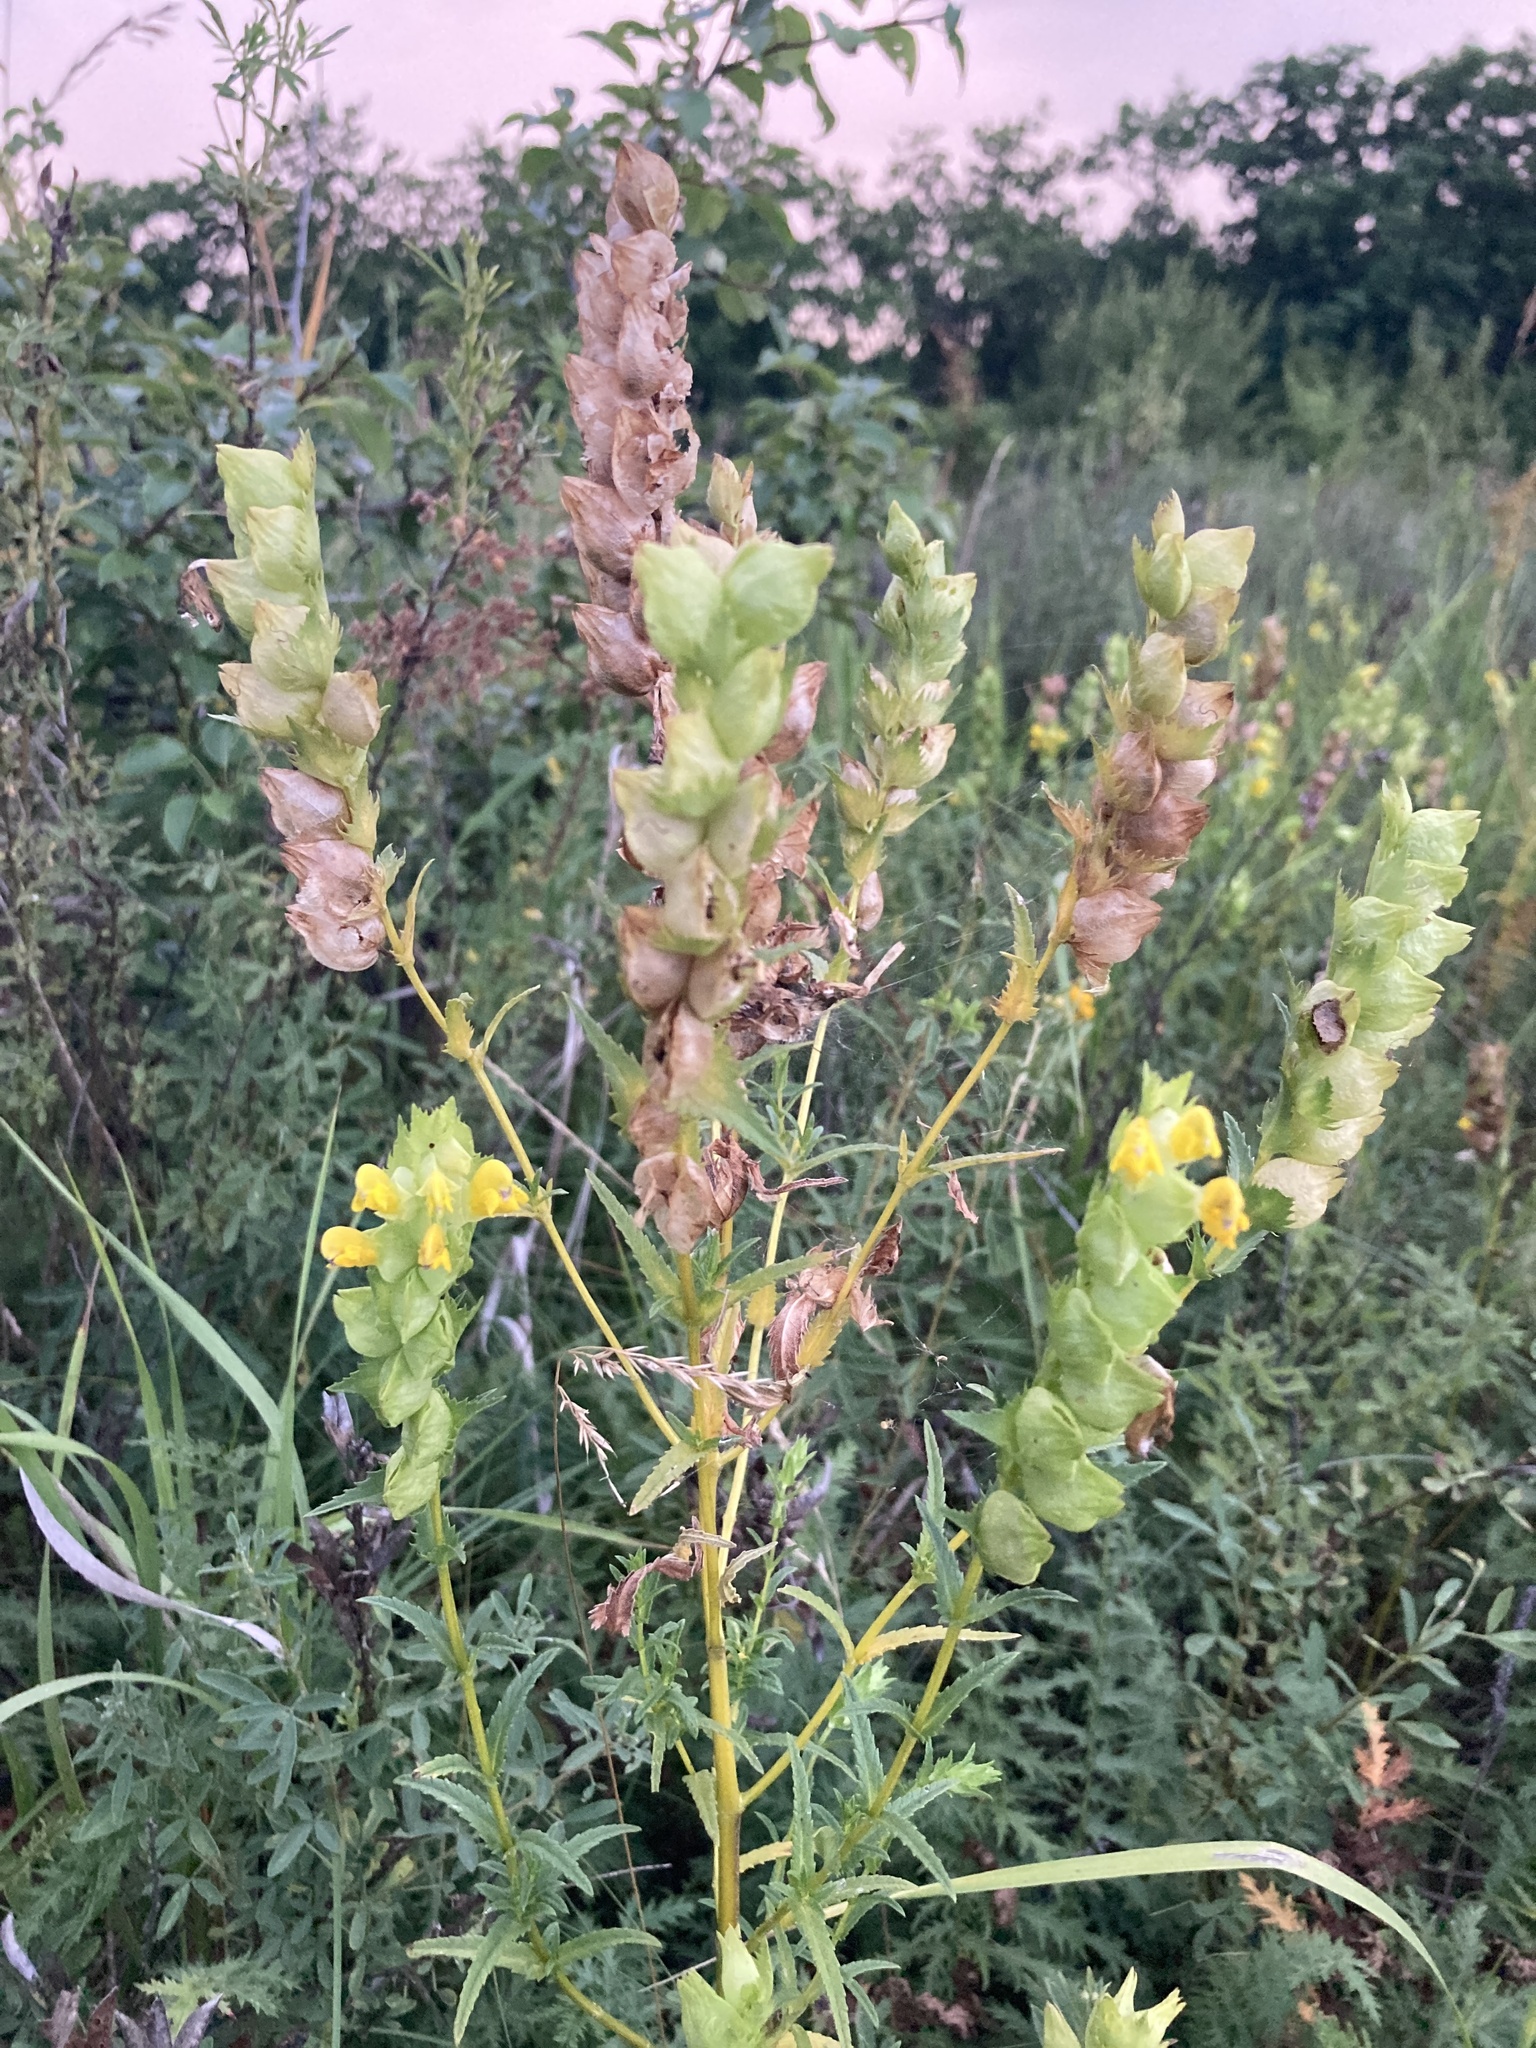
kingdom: Plantae
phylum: Tracheophyta
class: Magnoliopsida
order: Lamiales
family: Orobanchaceae
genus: Rhinanthus
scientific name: Rhinanthus serotinus
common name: Late-flowering yellow rattle
